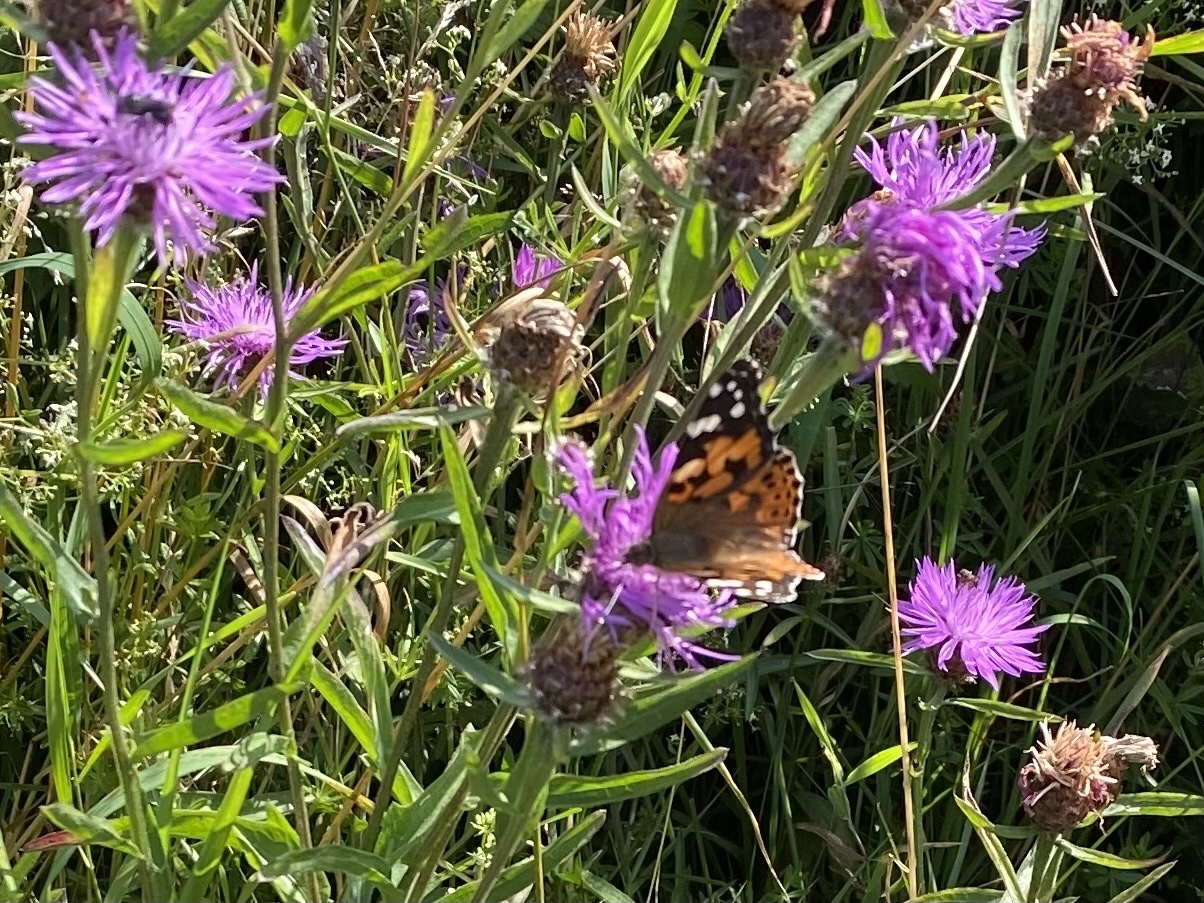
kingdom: Animalia
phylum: Arthropoda
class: Insecta
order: Lepidoptera
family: Nymphalidae
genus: Vanessa
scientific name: Vanessa cardui
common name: Painted lady
